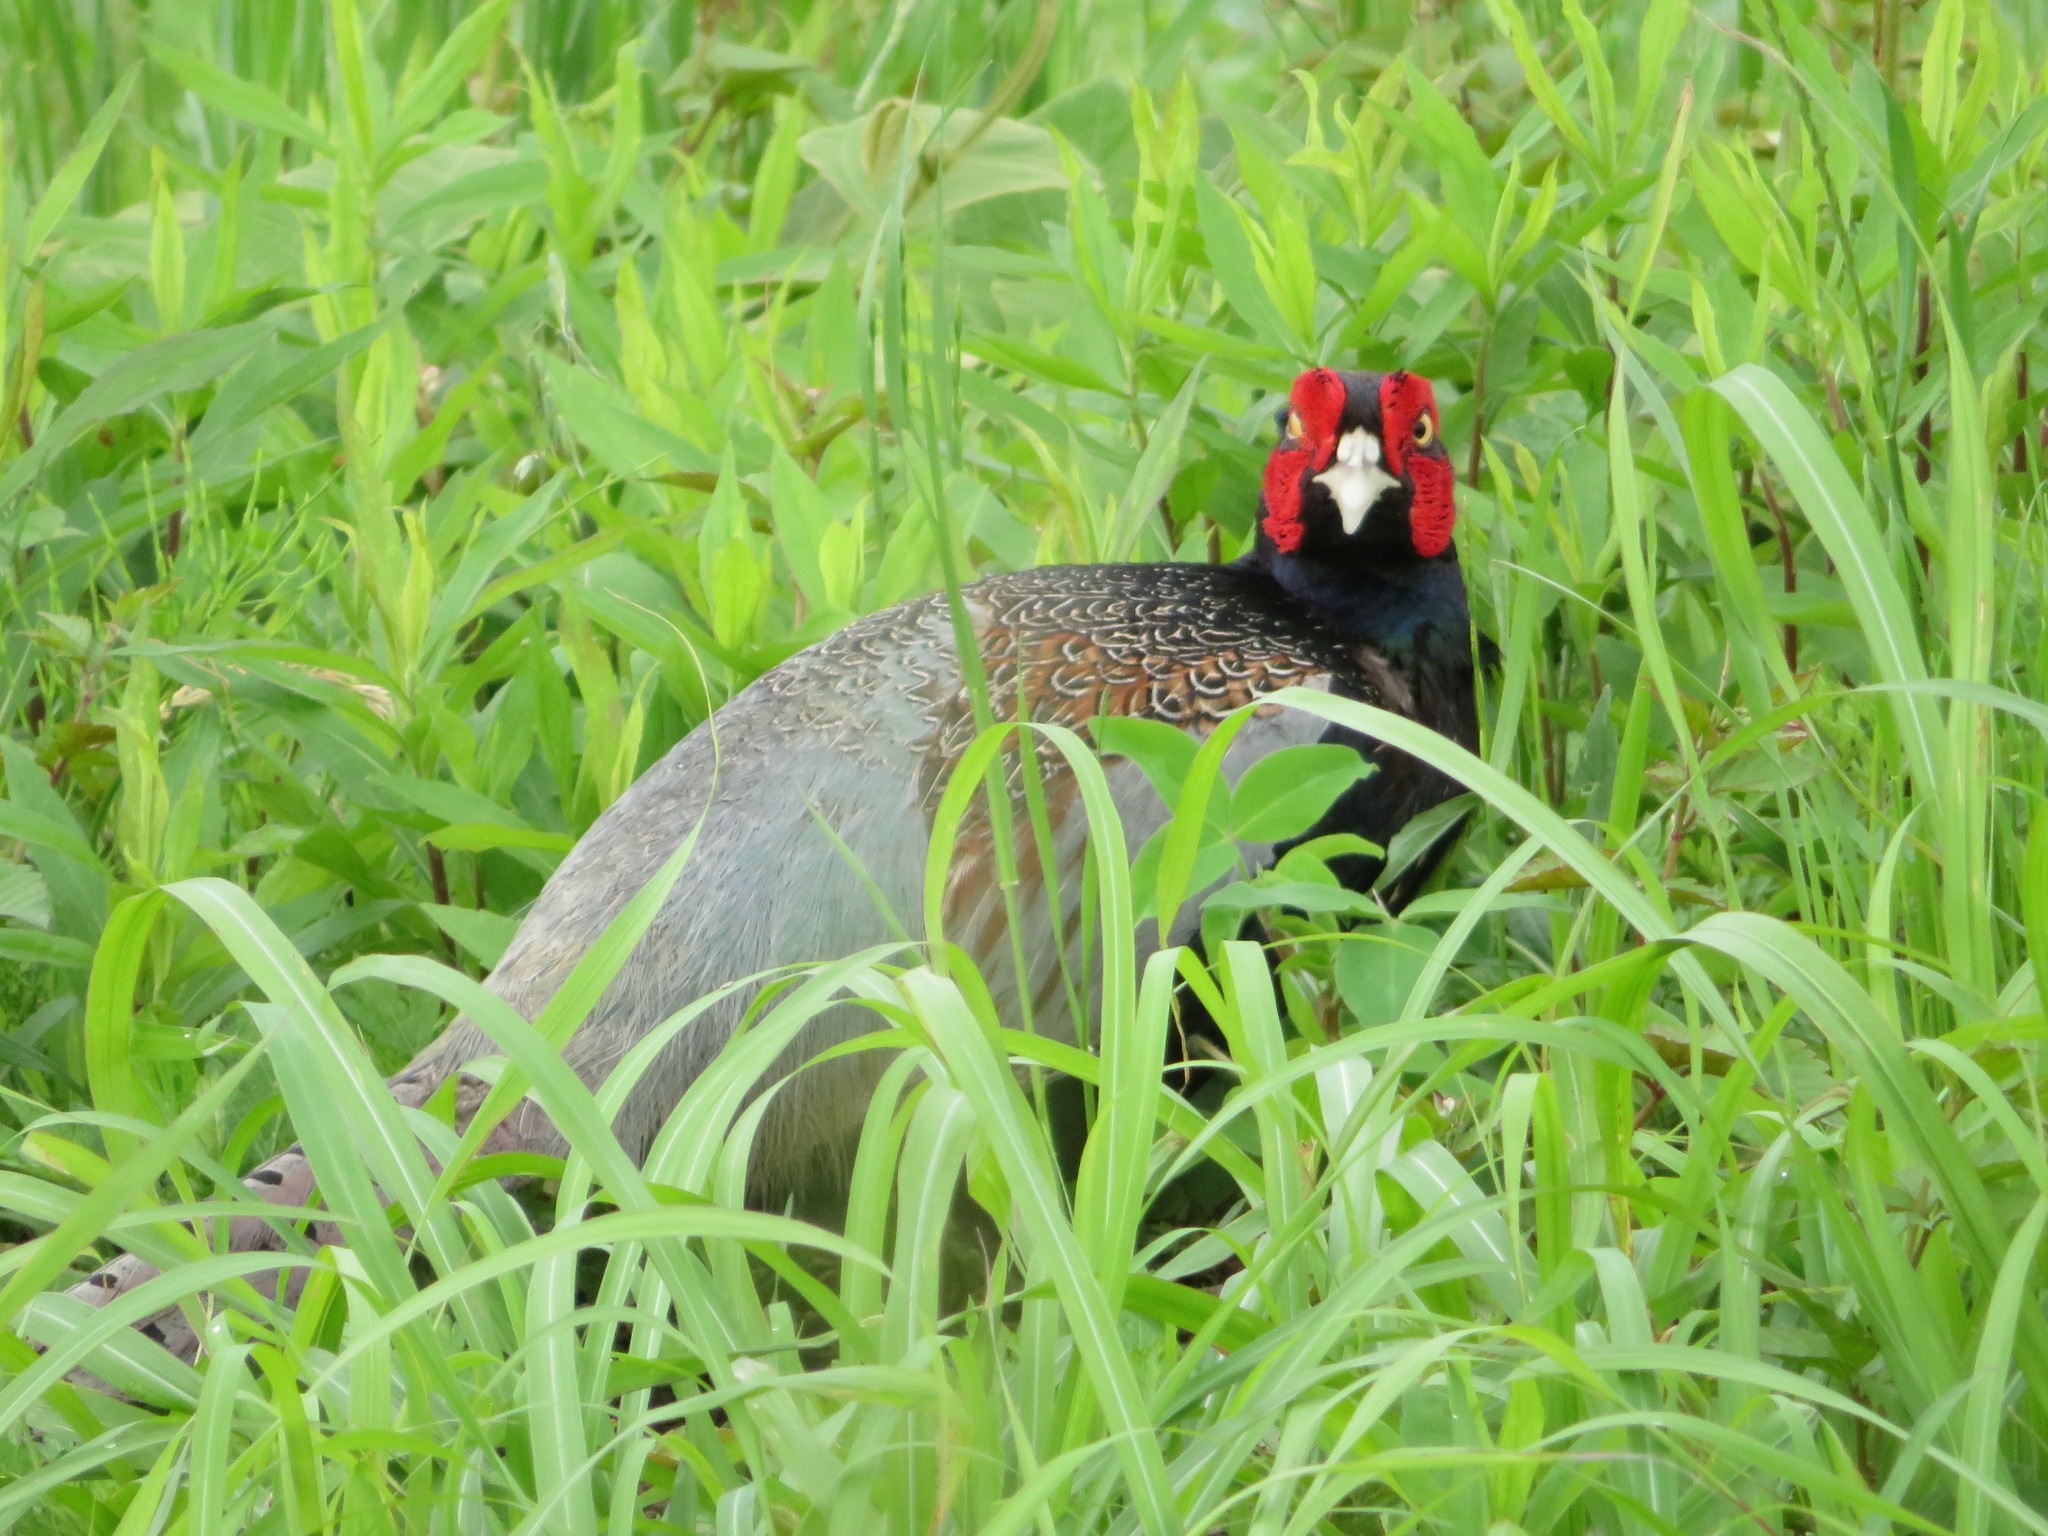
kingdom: Animalia
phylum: Chordata
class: Aves
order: Galliformes
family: Phasianidae
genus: Phasianus
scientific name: Phasianus versicolor
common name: Green pheasant
